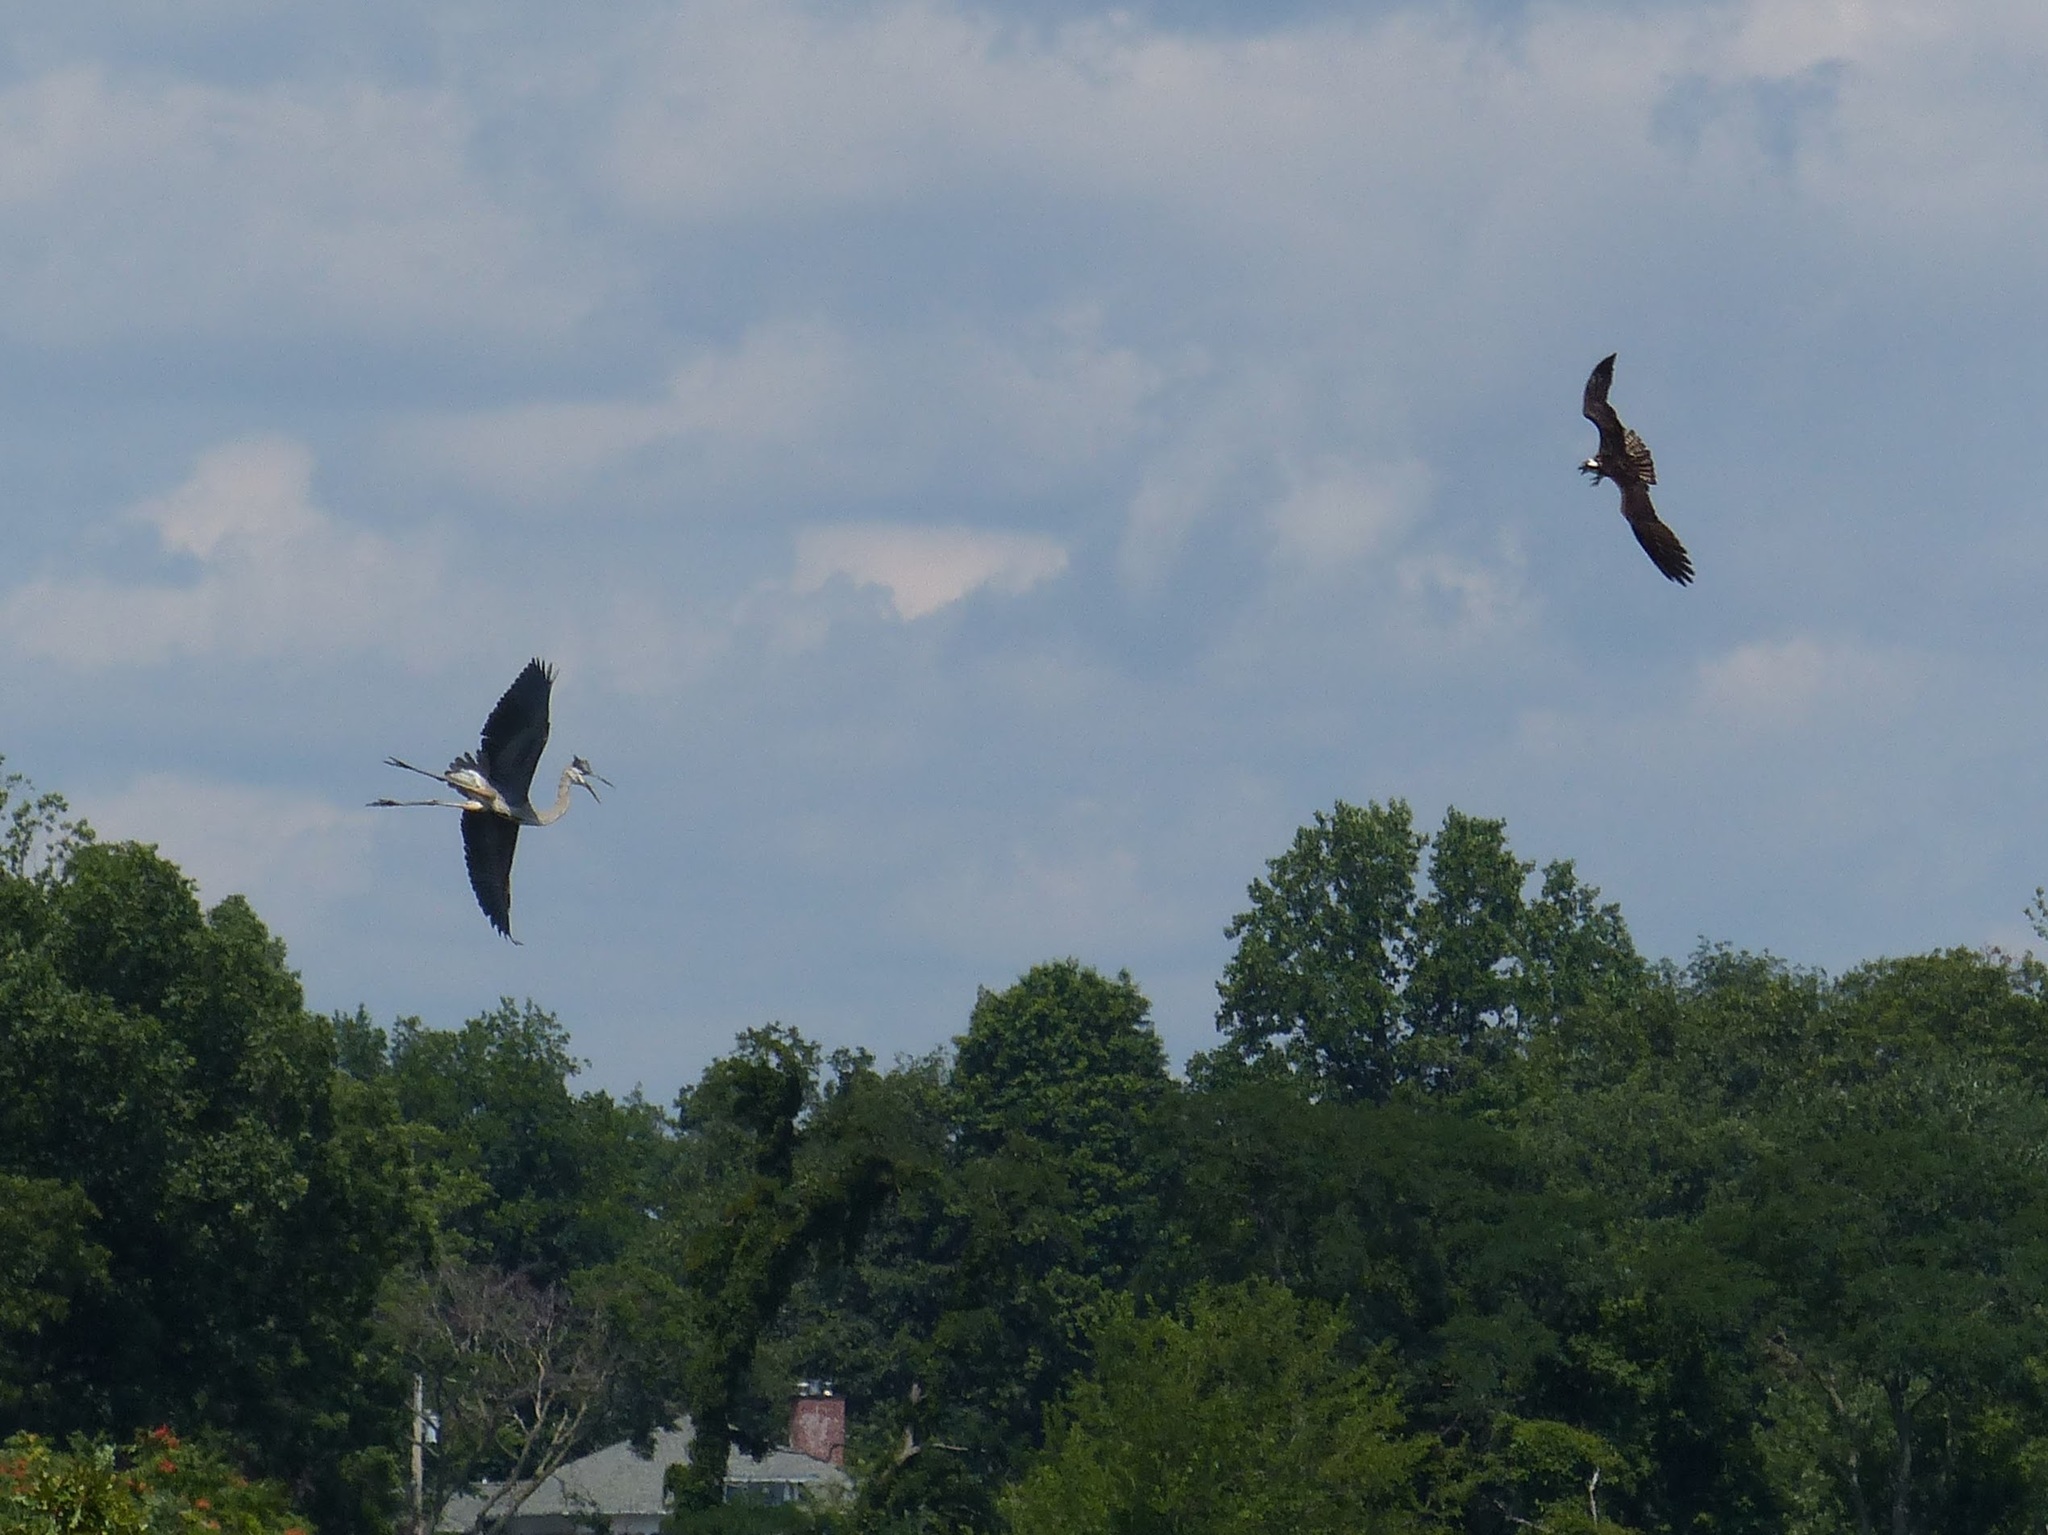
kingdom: Animalia
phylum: Chordata
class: Aves
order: Pelecaniformes
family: Ardeidae
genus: Ardea
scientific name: Ardea herodias
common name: Great blue heron
